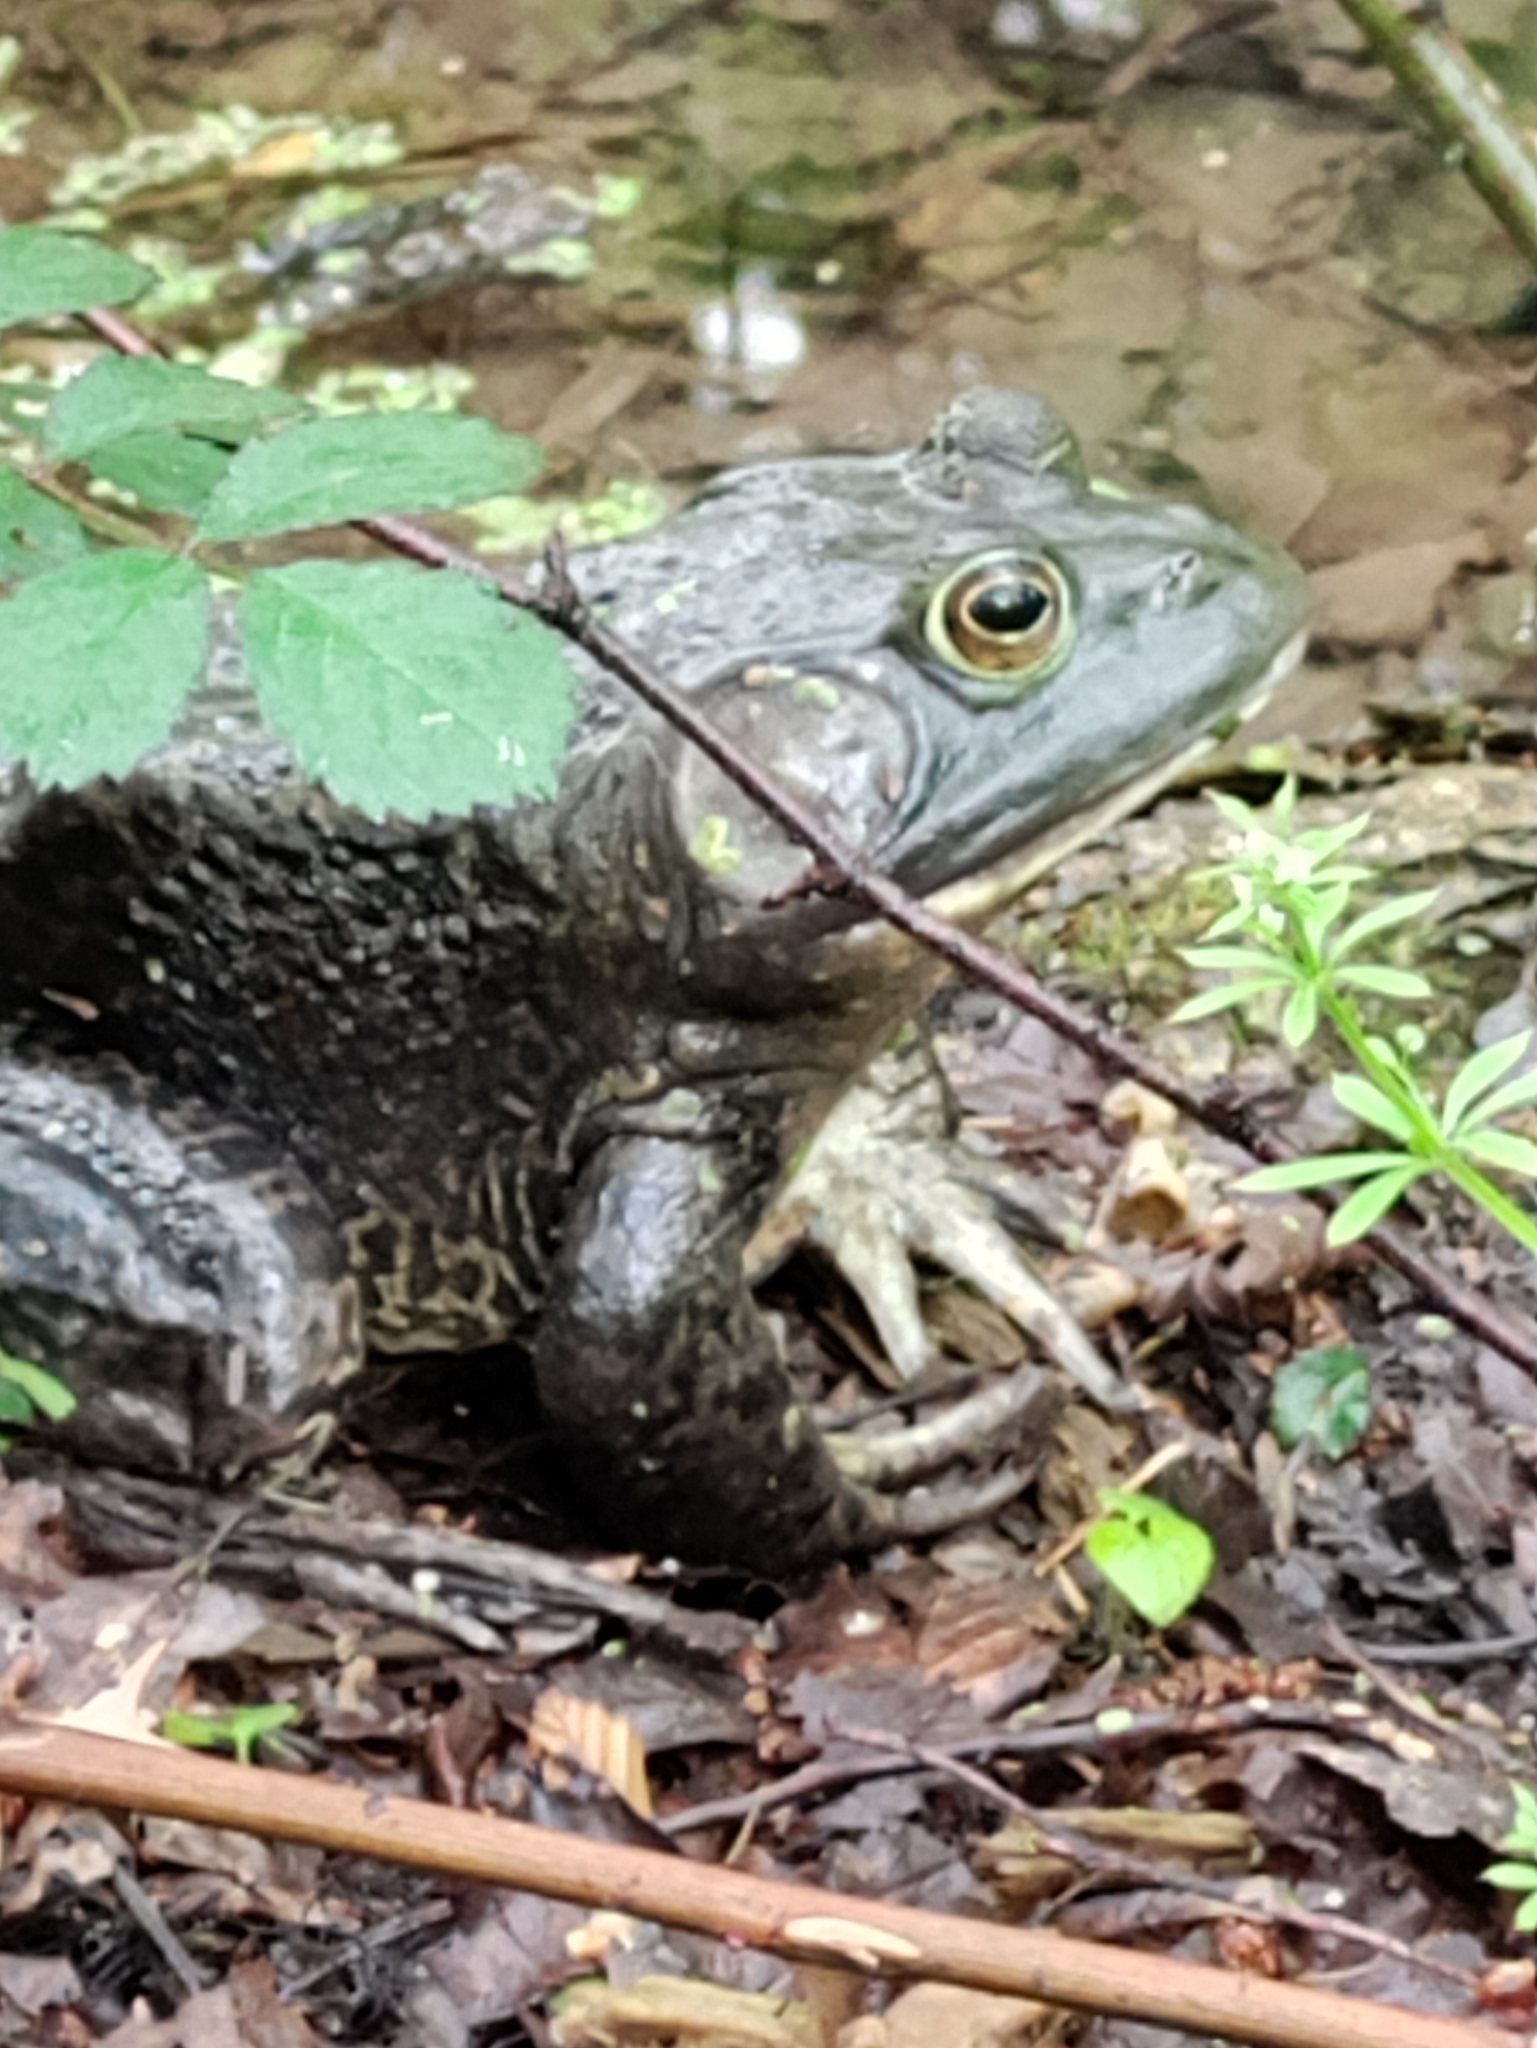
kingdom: Animalia
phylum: Chordata
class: Amphibia
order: Anura
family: Ranidae
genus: Lithobates
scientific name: Lithobates catesbeianus
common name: American bullfrog
